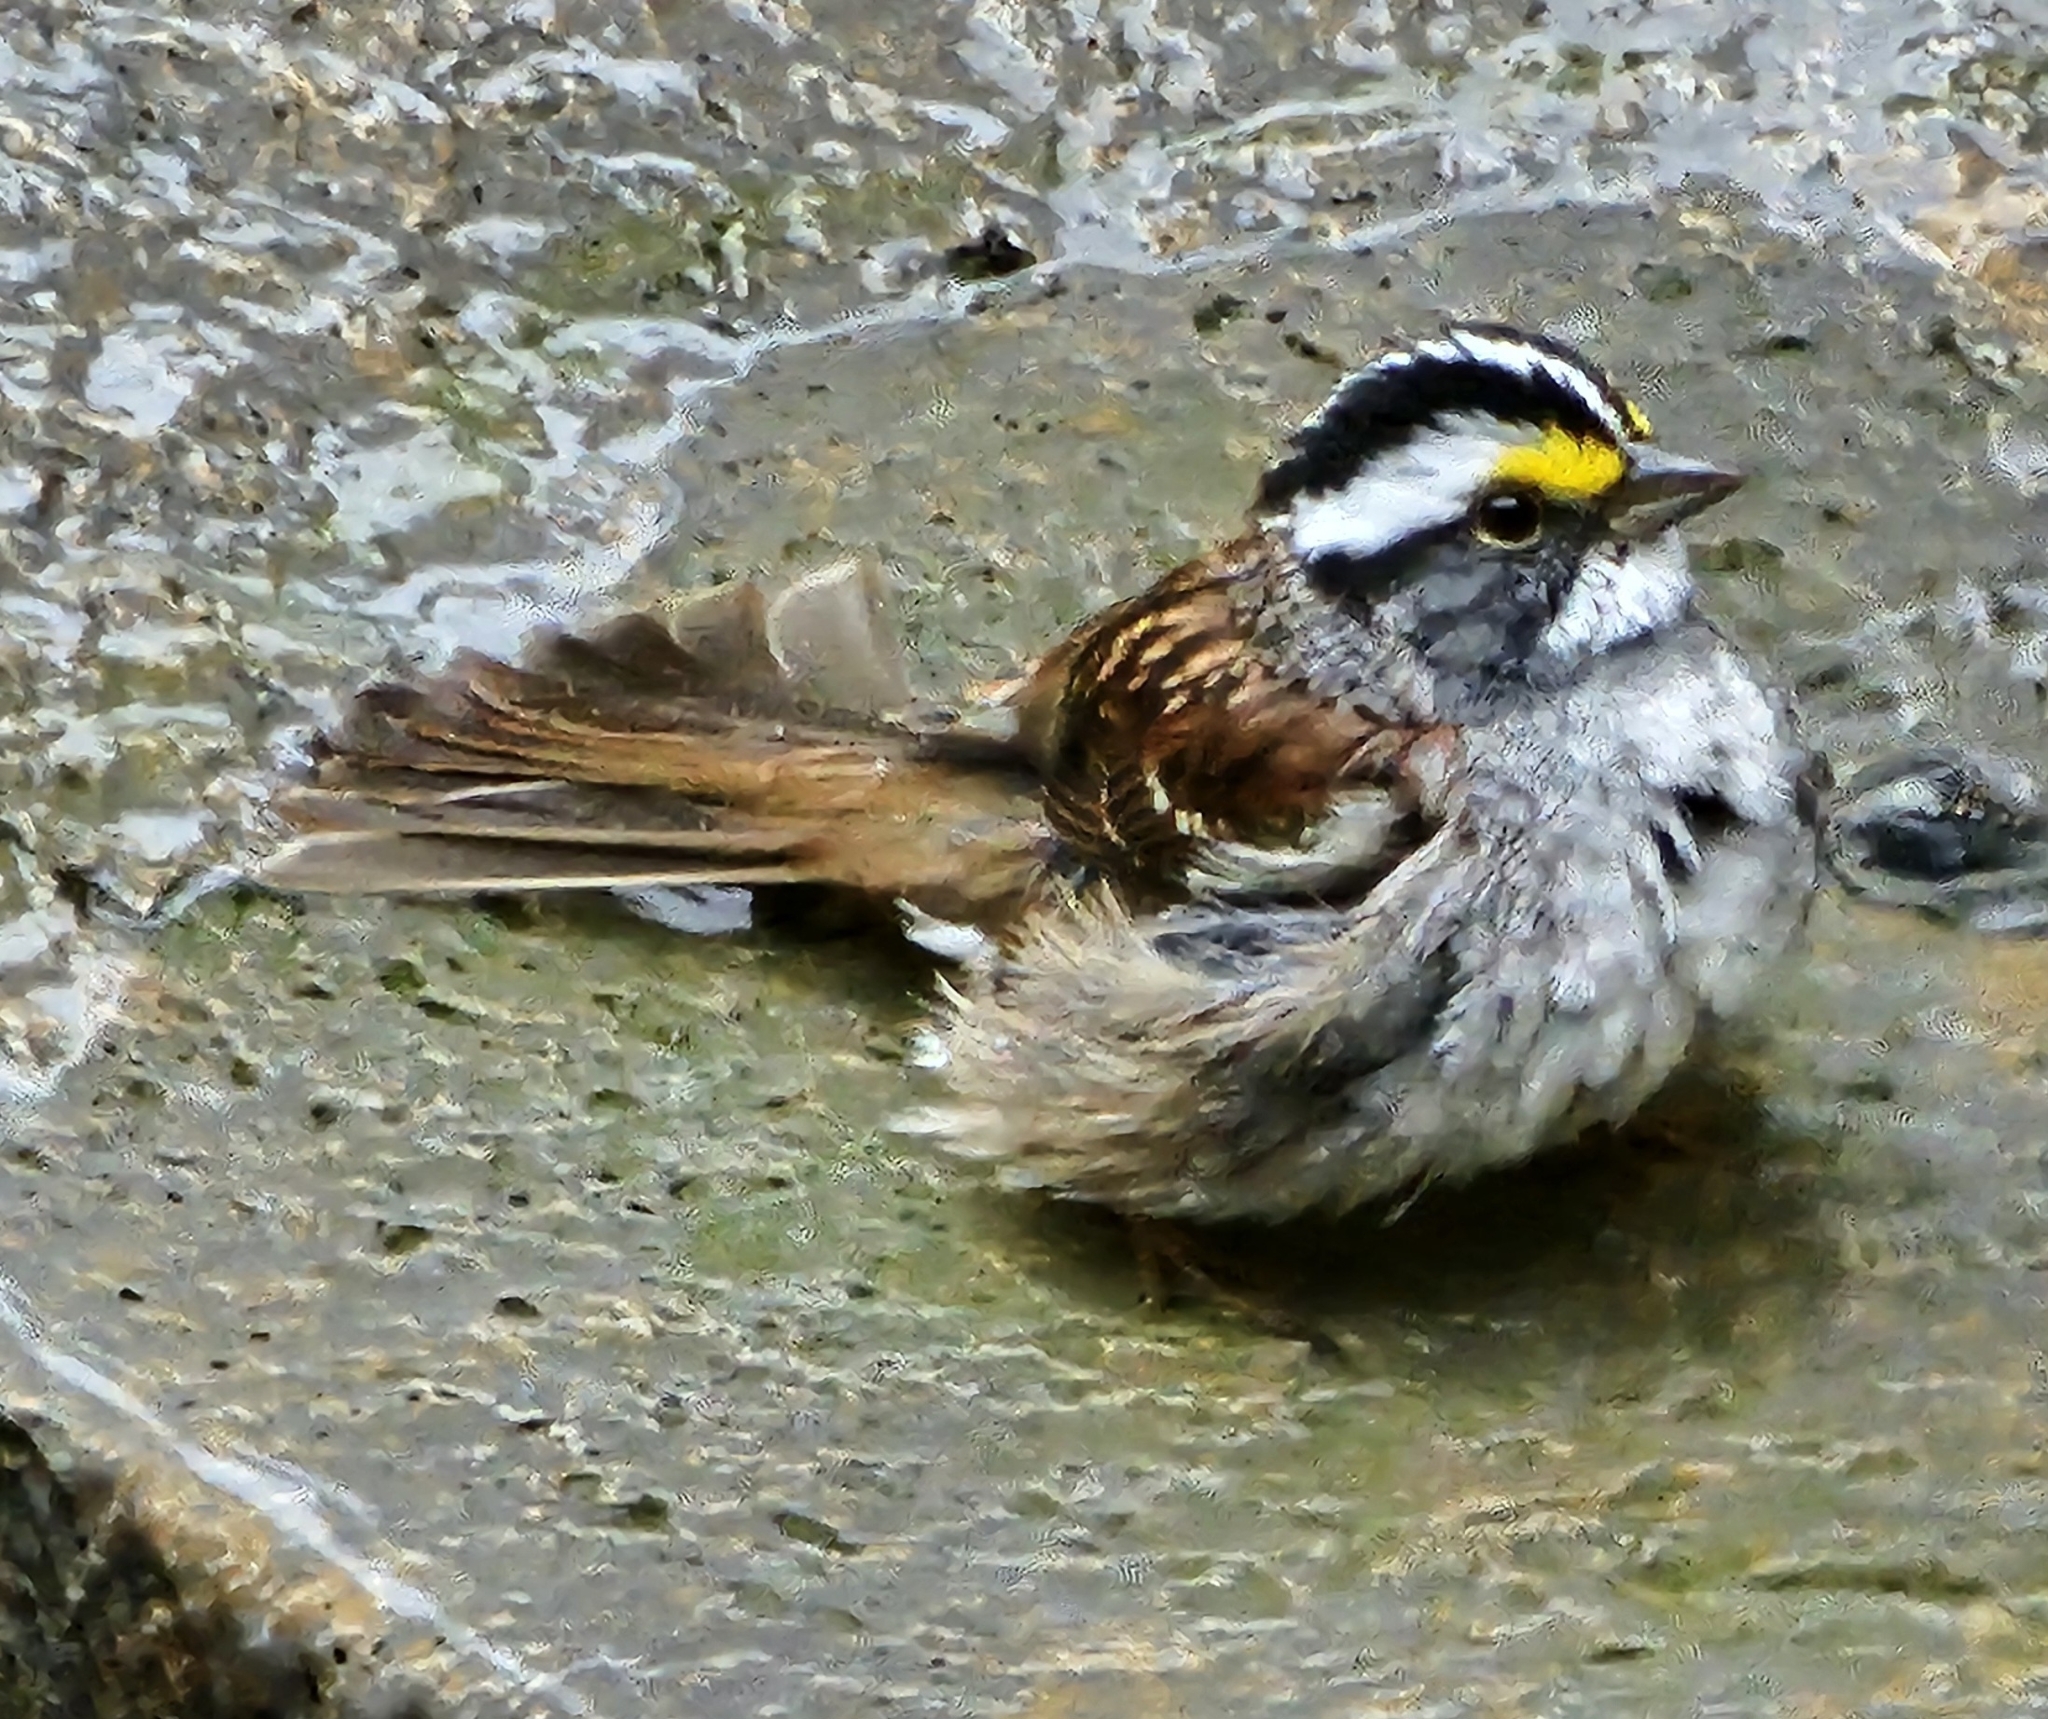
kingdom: Animalia
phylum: Chordata
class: Aves
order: Passeriformes
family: Passerellidae
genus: Zonotrichia
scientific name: Zonotrichia albicollis
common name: White-throated sparrow
